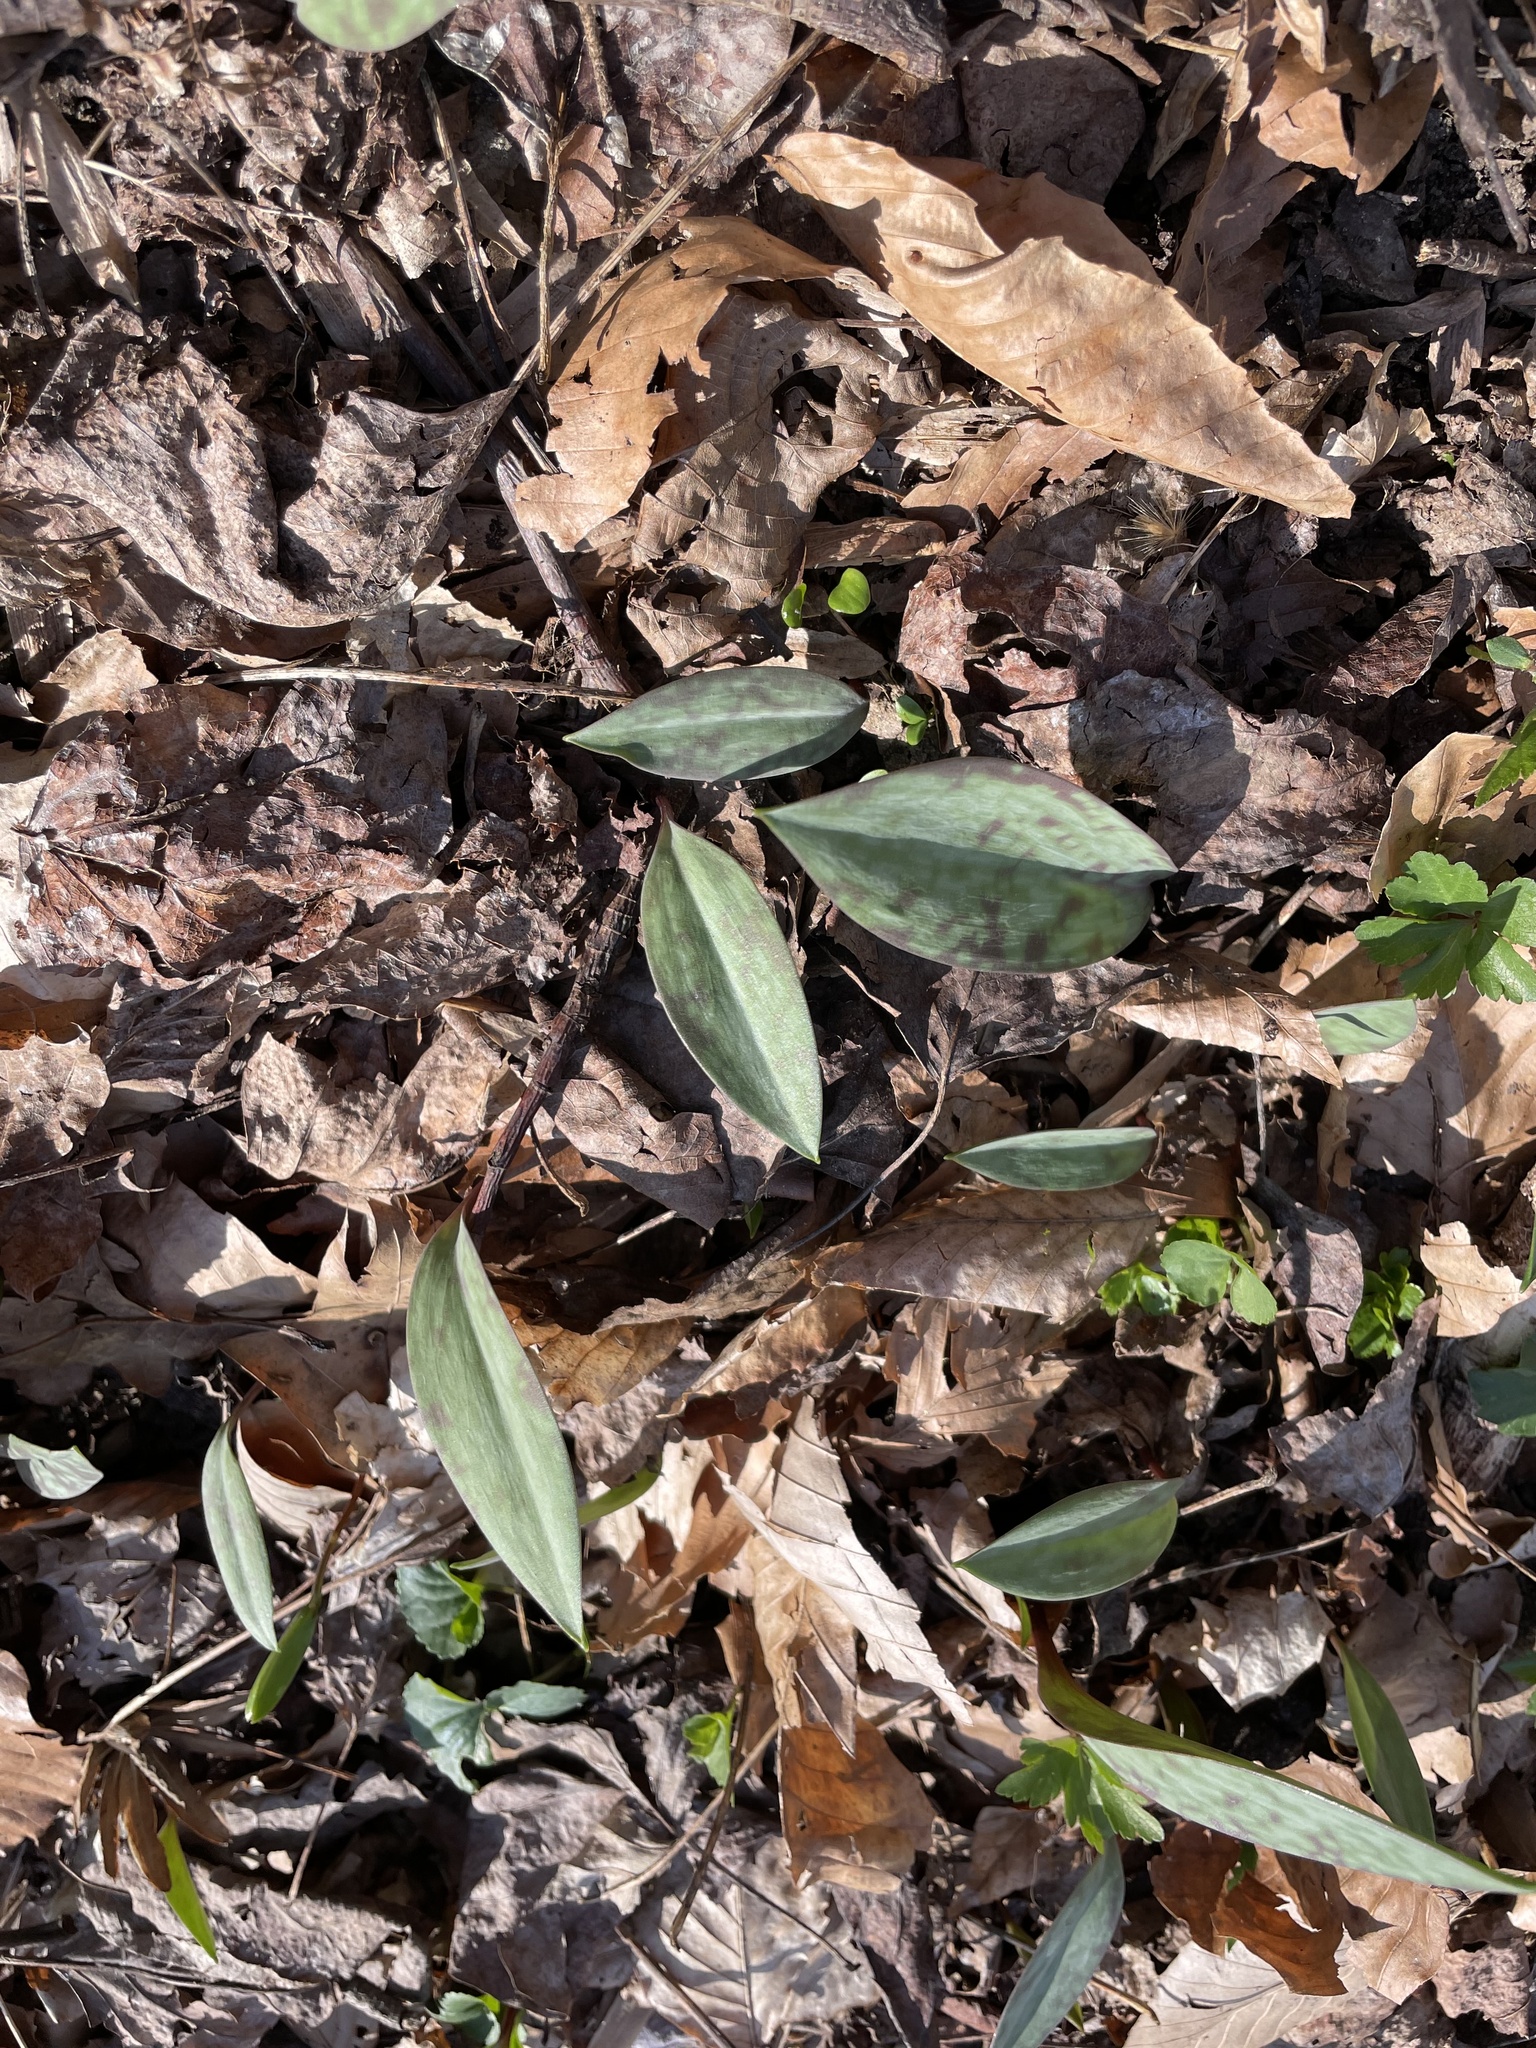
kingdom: Plantae
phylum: Tracheophyta
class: Liliopsida
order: Liliales
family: Liliaceae
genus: Erythronium
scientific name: Erythronium americanum
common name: Yellow adder's-tongue
